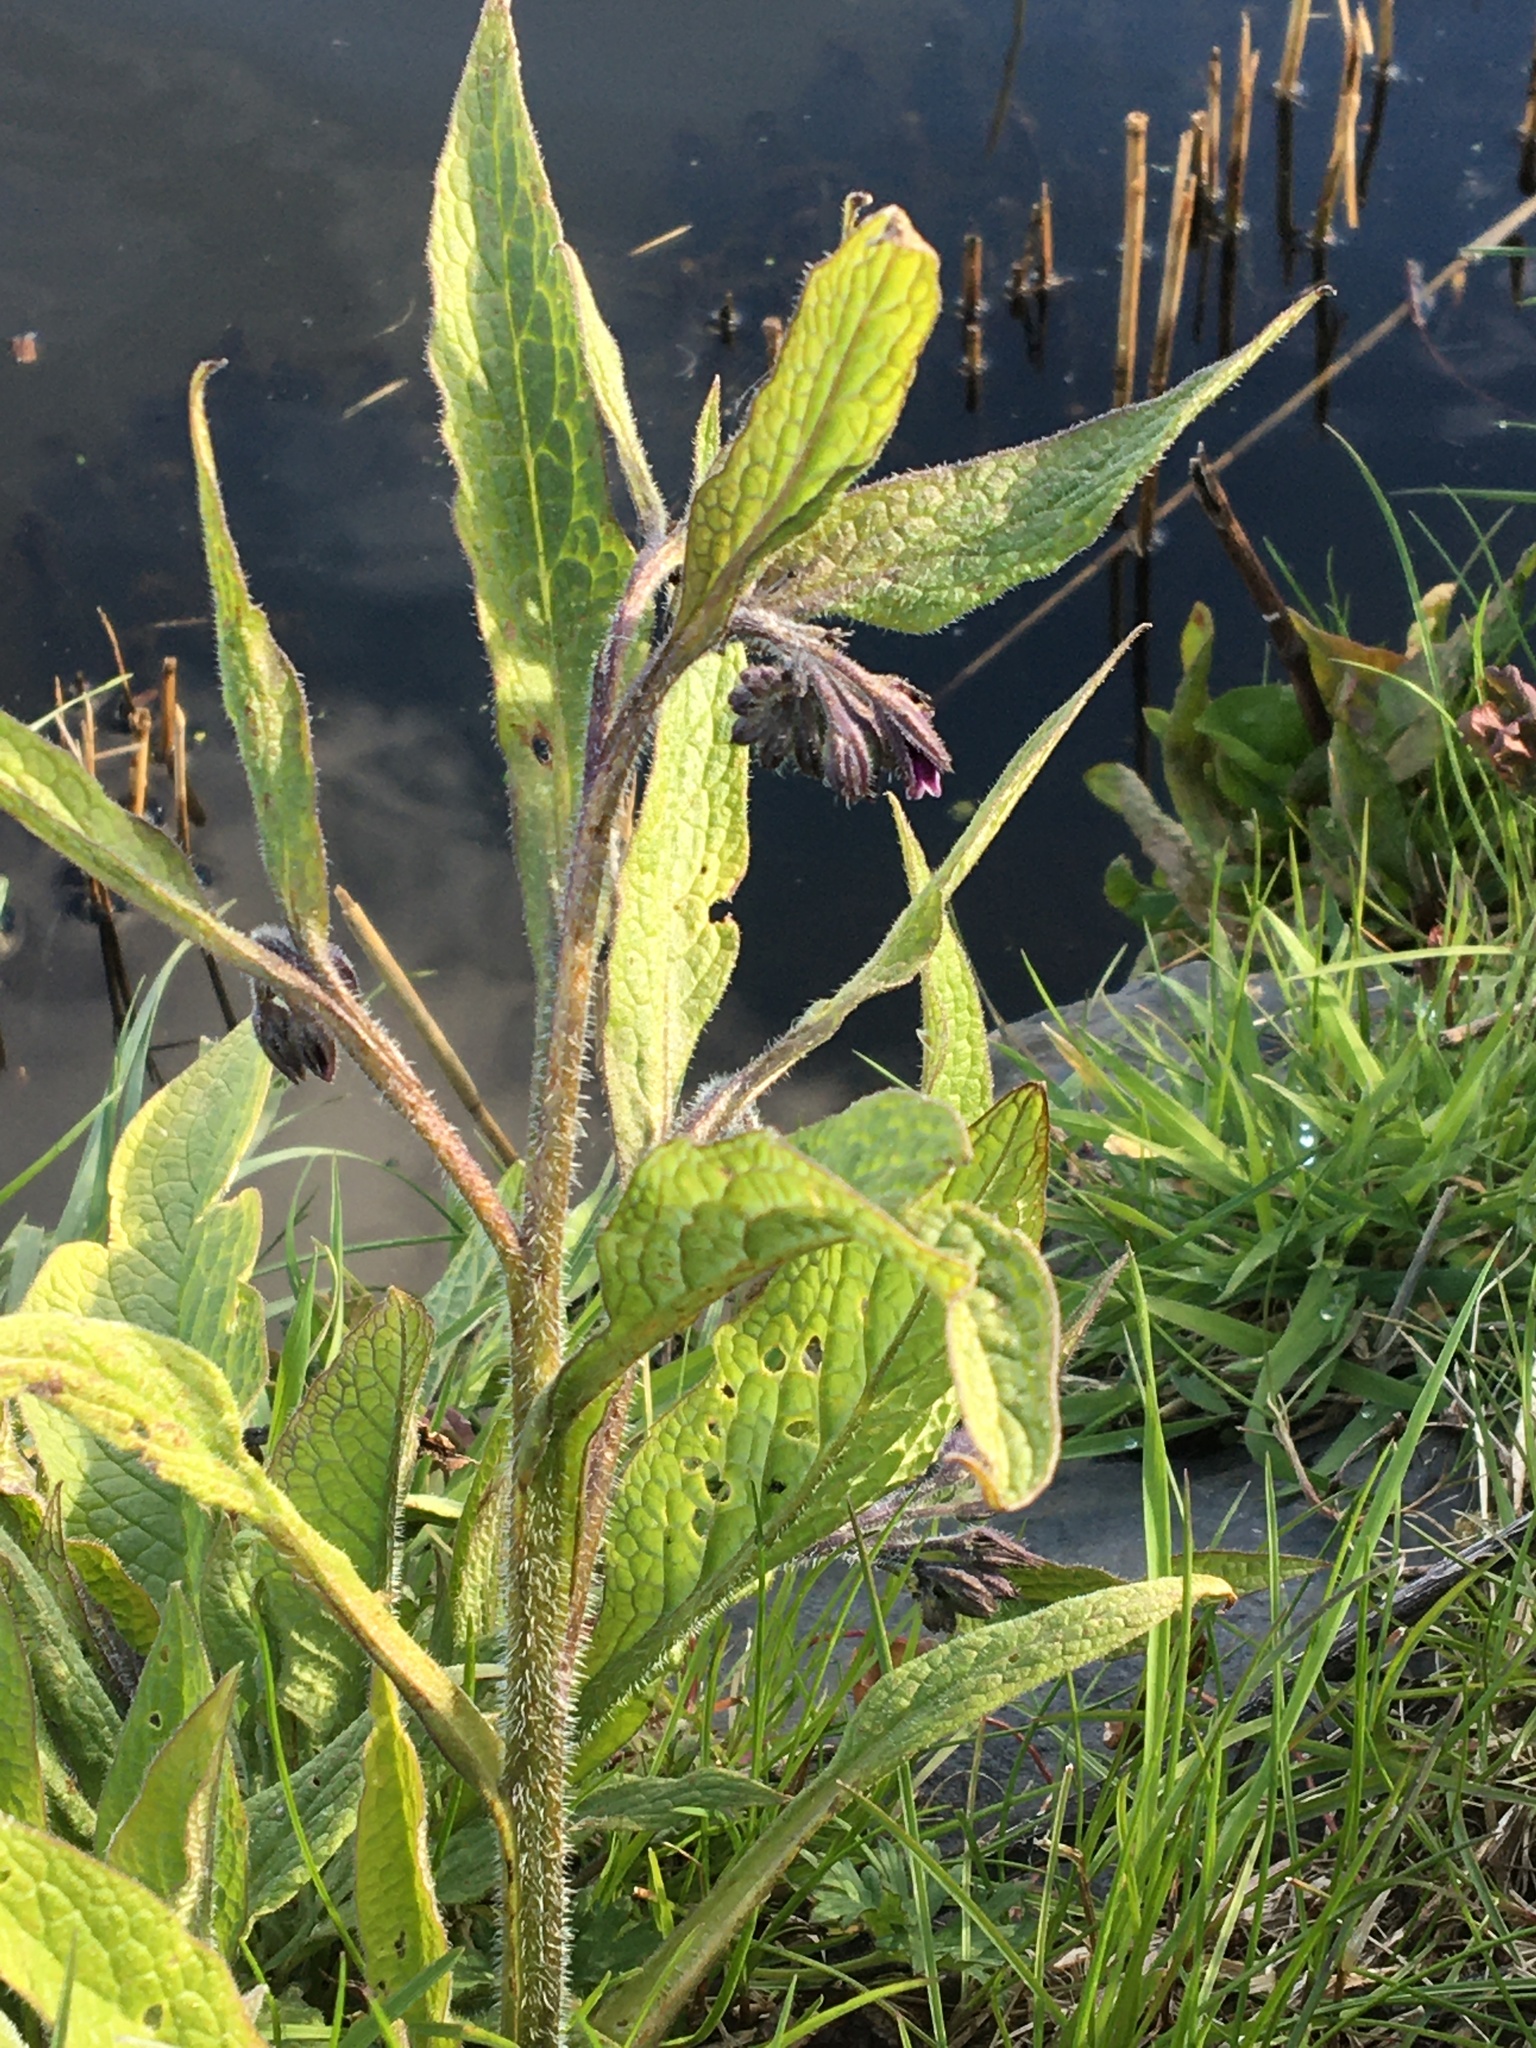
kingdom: Plantae
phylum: Tracheophyta
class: Magnoliopsida
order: Boraginales
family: Boraginaceae
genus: Symphytum
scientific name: Symphytum officinale
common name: Common comfrey
